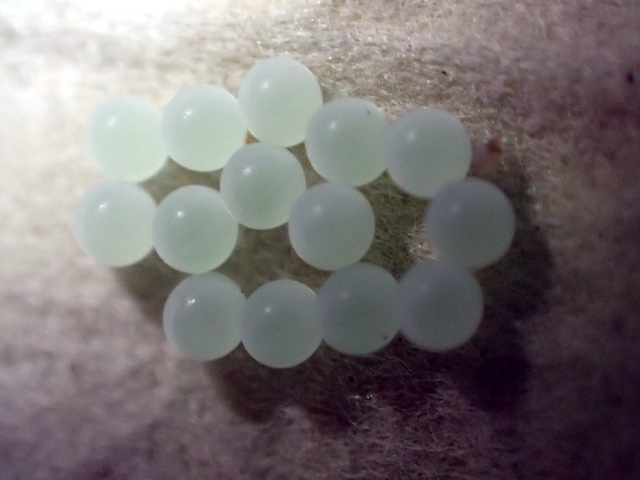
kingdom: Animalia
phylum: Arthropoda
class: Insecta
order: Hemiptera
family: Pentatomidae
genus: Monteithiella
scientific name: Monteithiella
